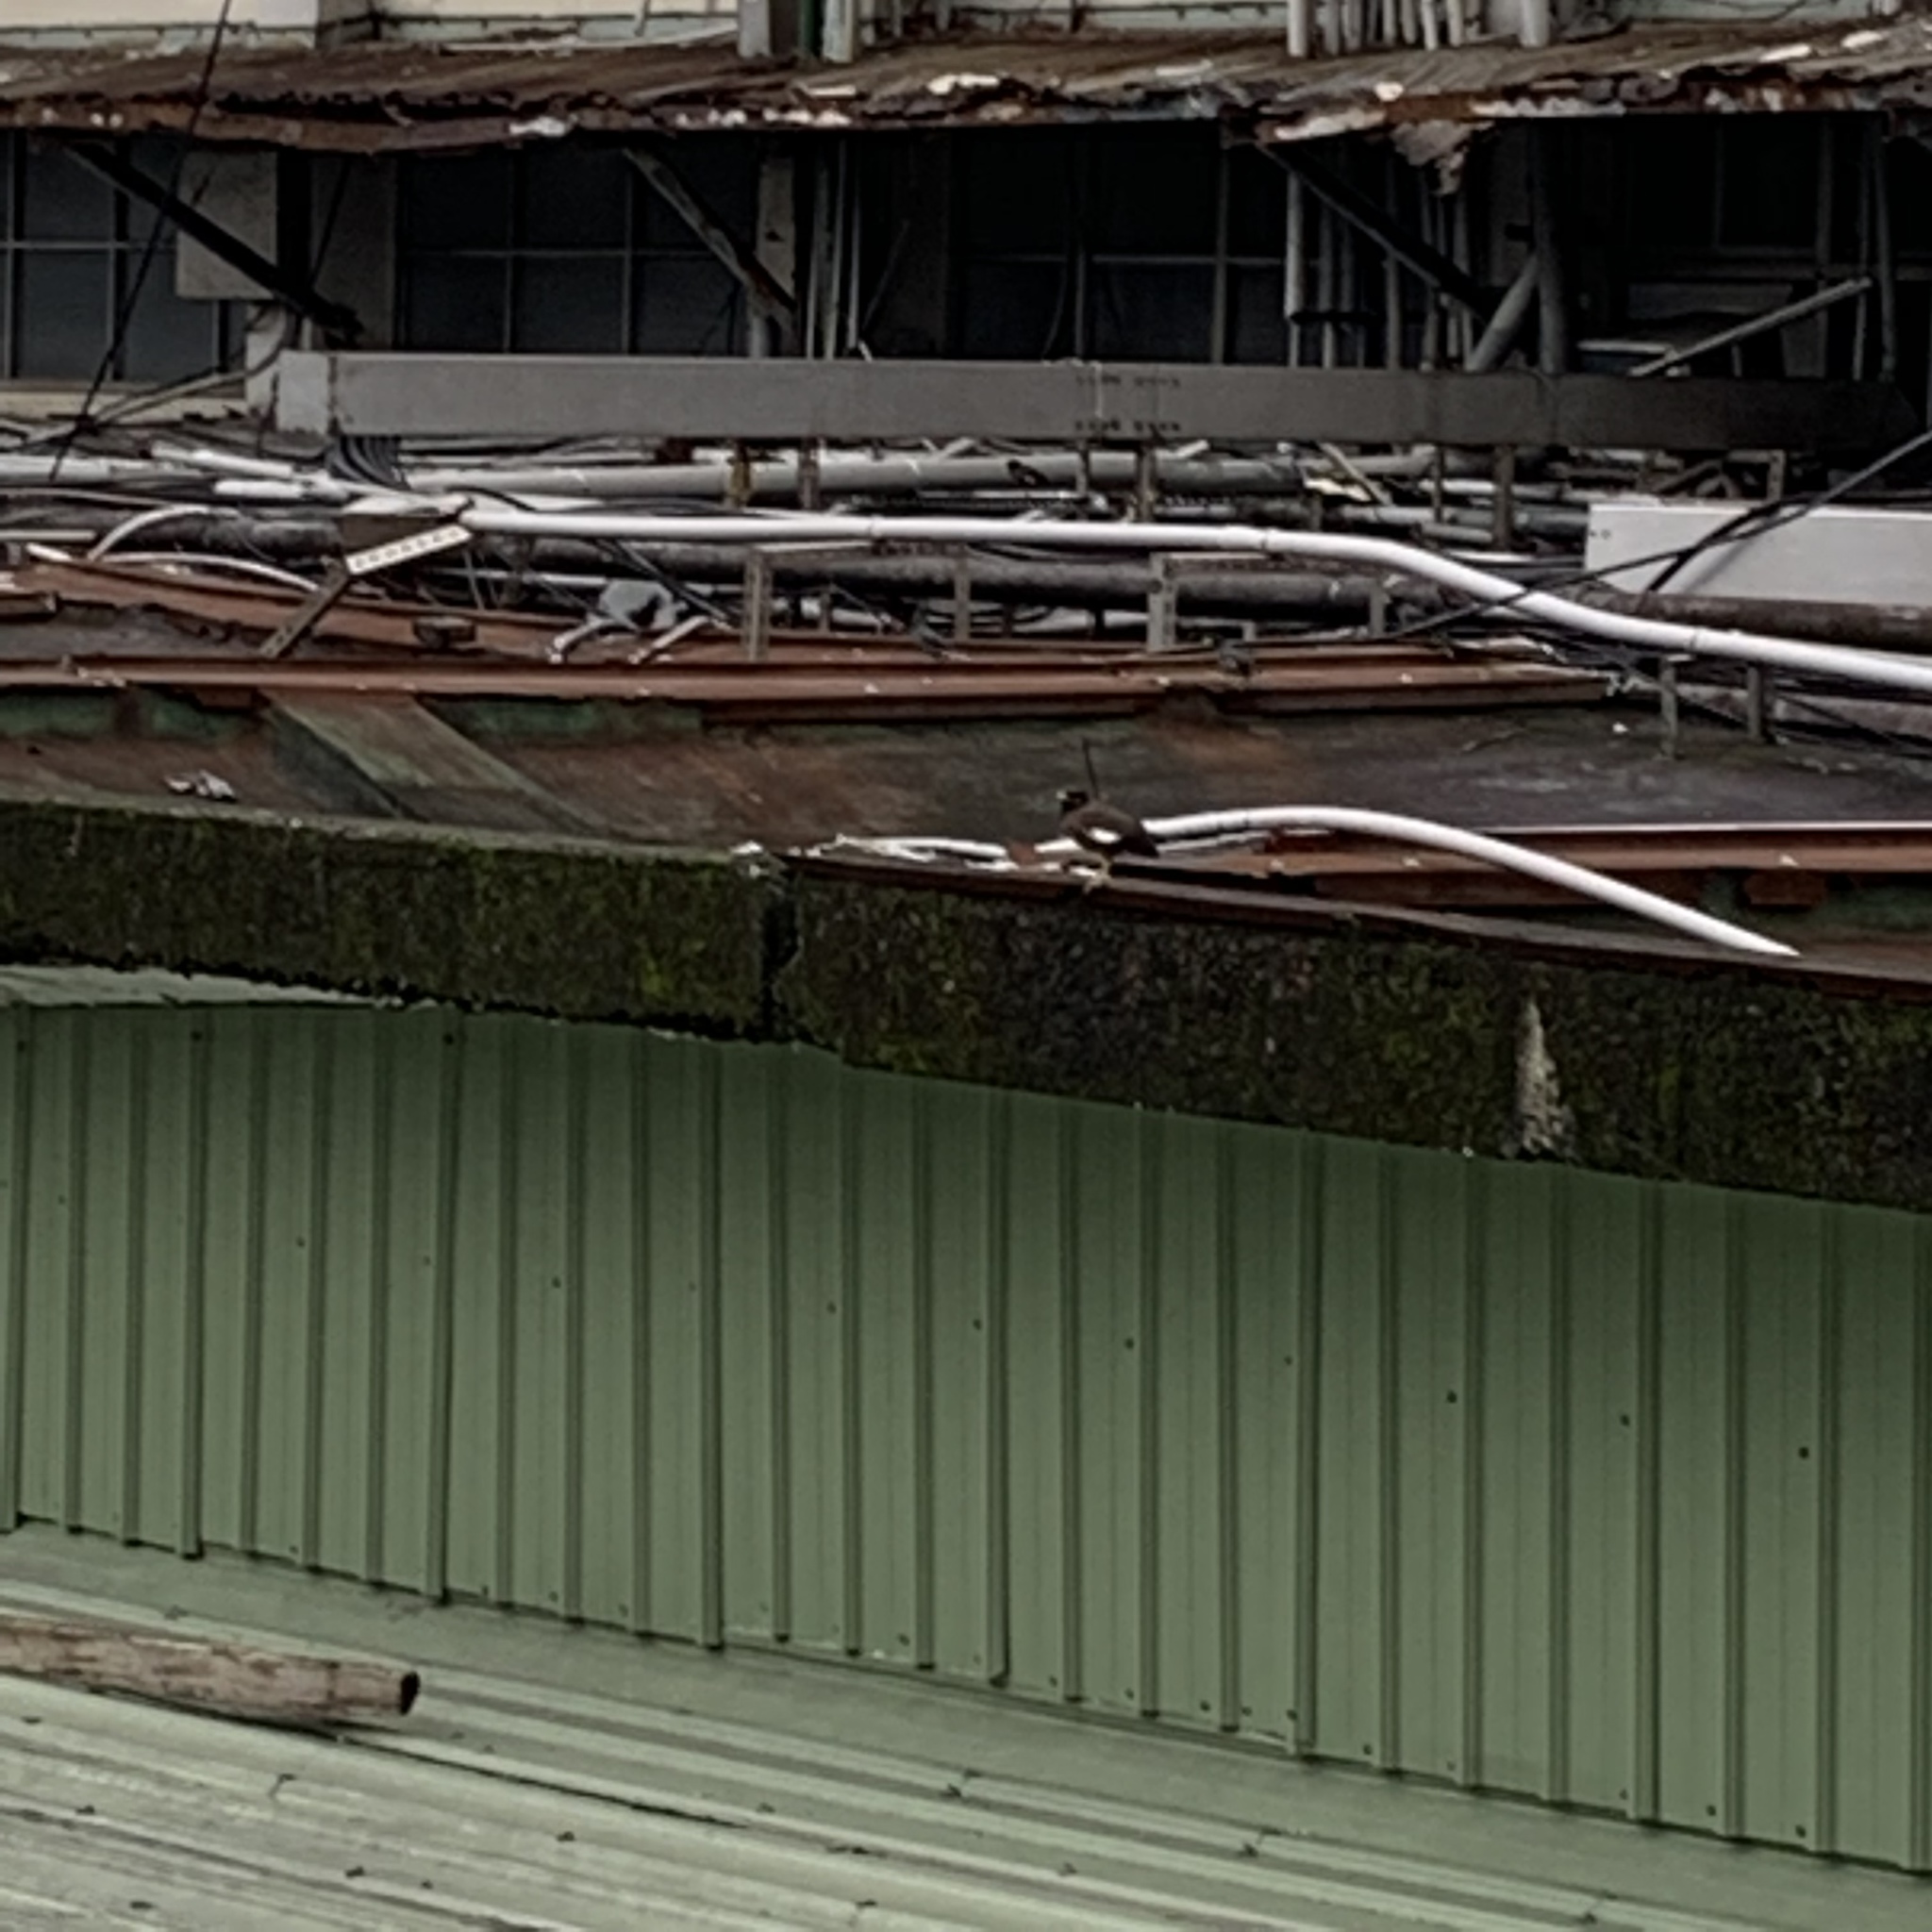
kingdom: Animalia
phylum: Chordata
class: Aves
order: Passeriformes
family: Sturnidae
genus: Acridotheres
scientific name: Acridotheres tristis
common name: Common myna
